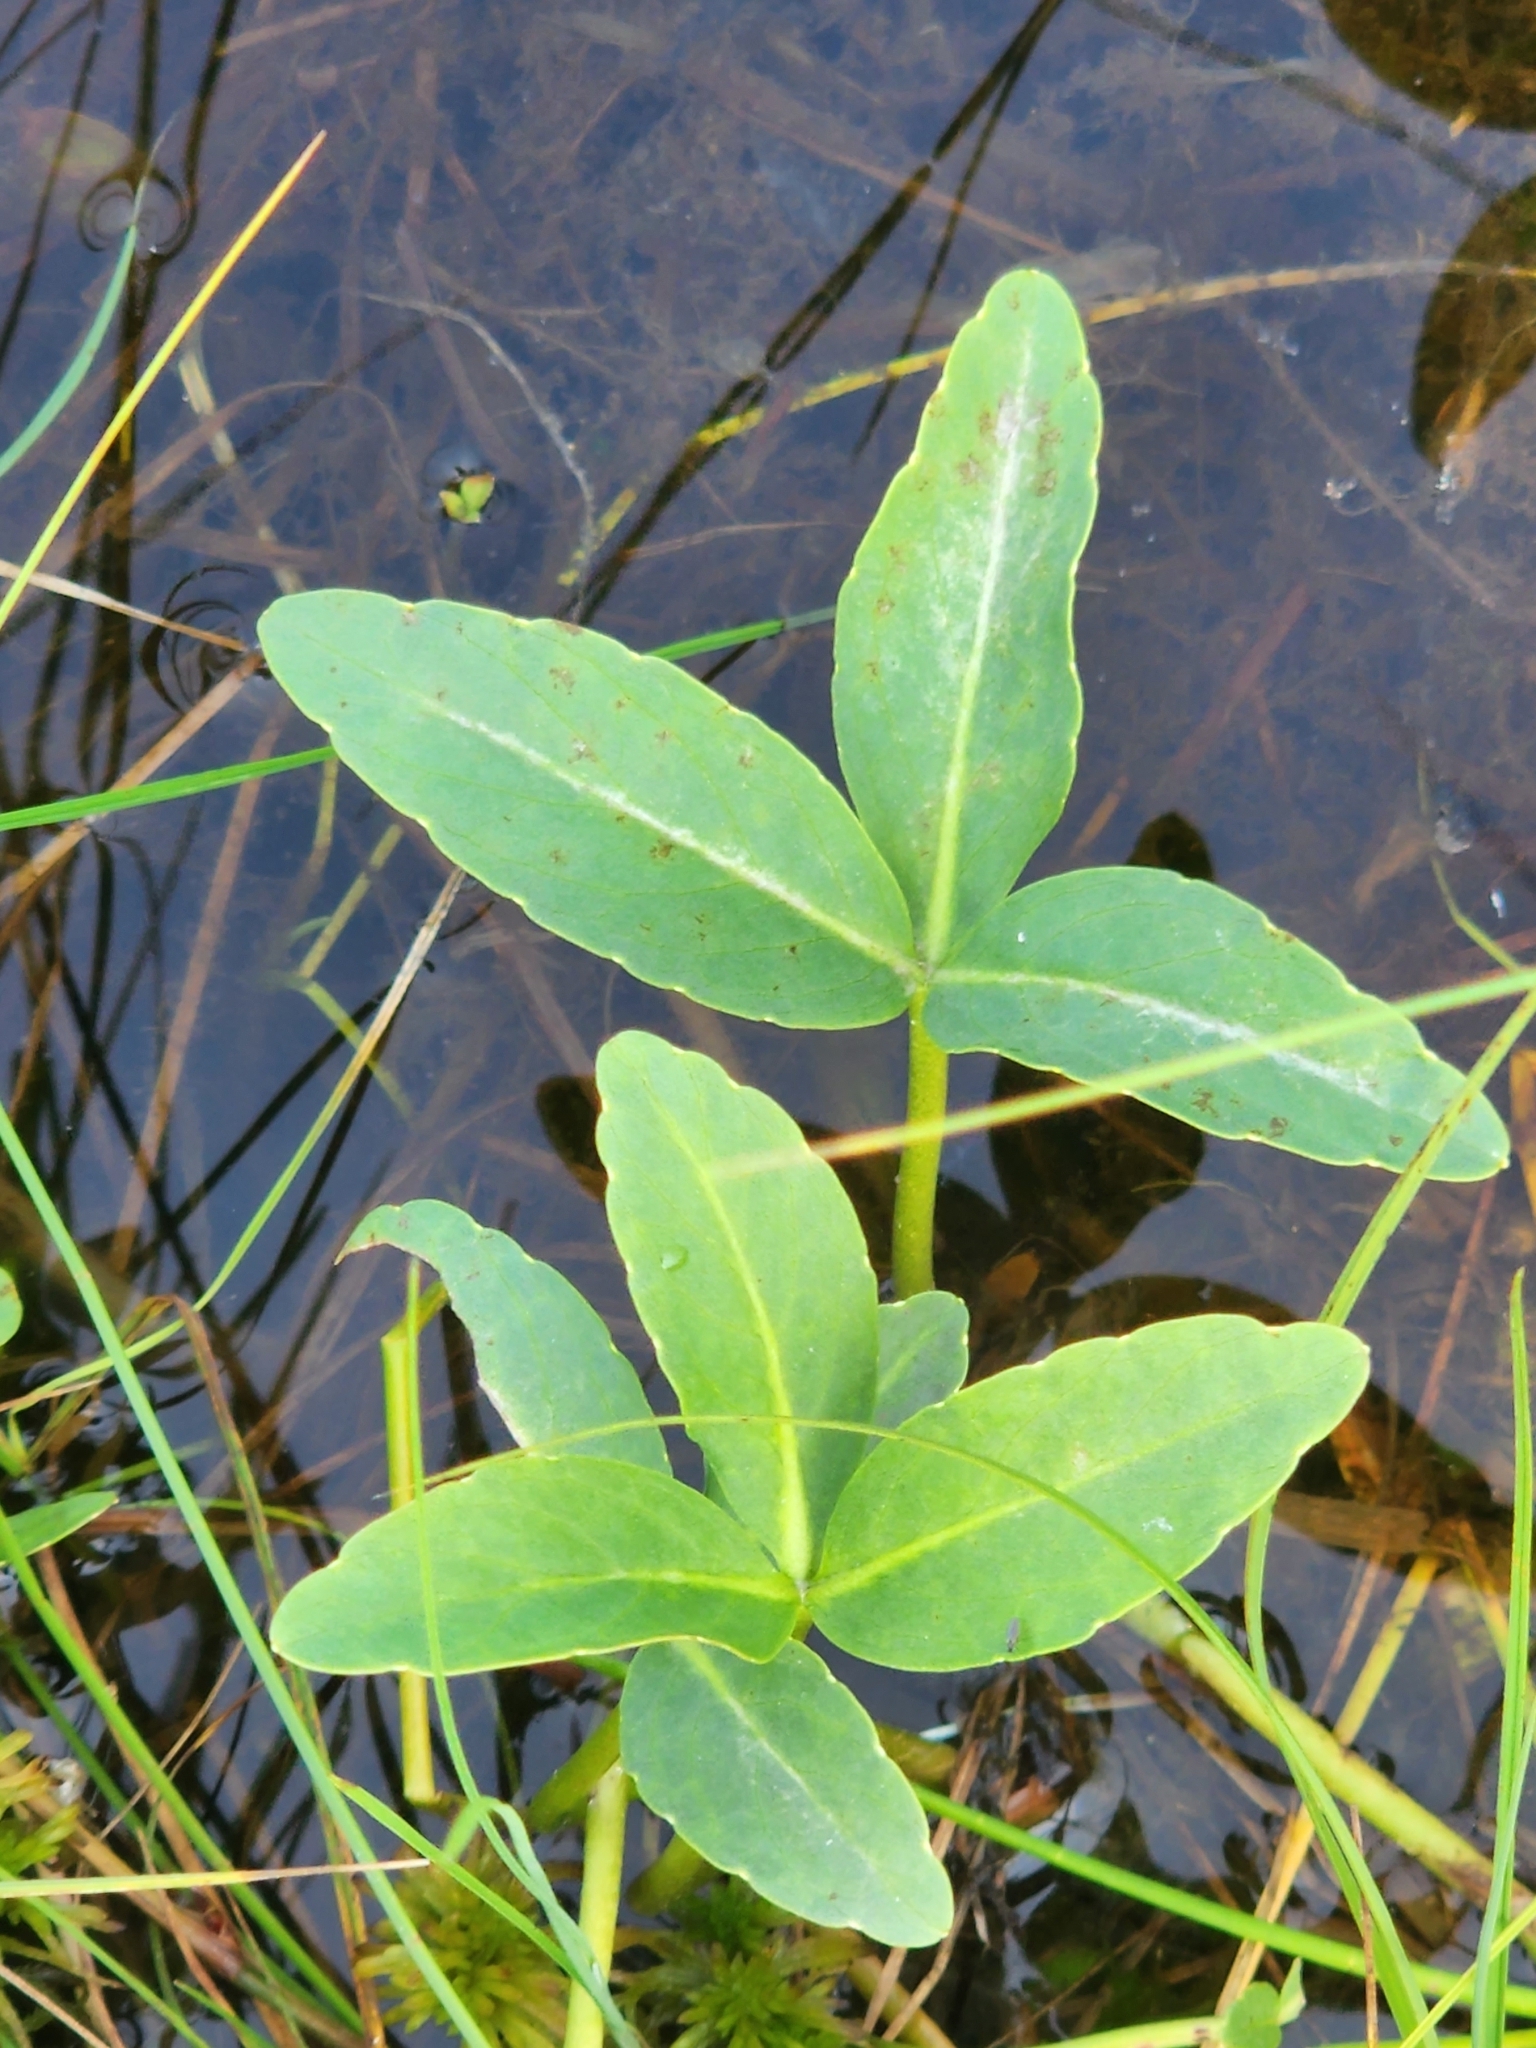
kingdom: Plantae
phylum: Tracheophyta
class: Magnoliopsida
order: Asterales
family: Menyanthaceae
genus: Menyanthes
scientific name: Menyanthes trifoliata
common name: Bogbean
